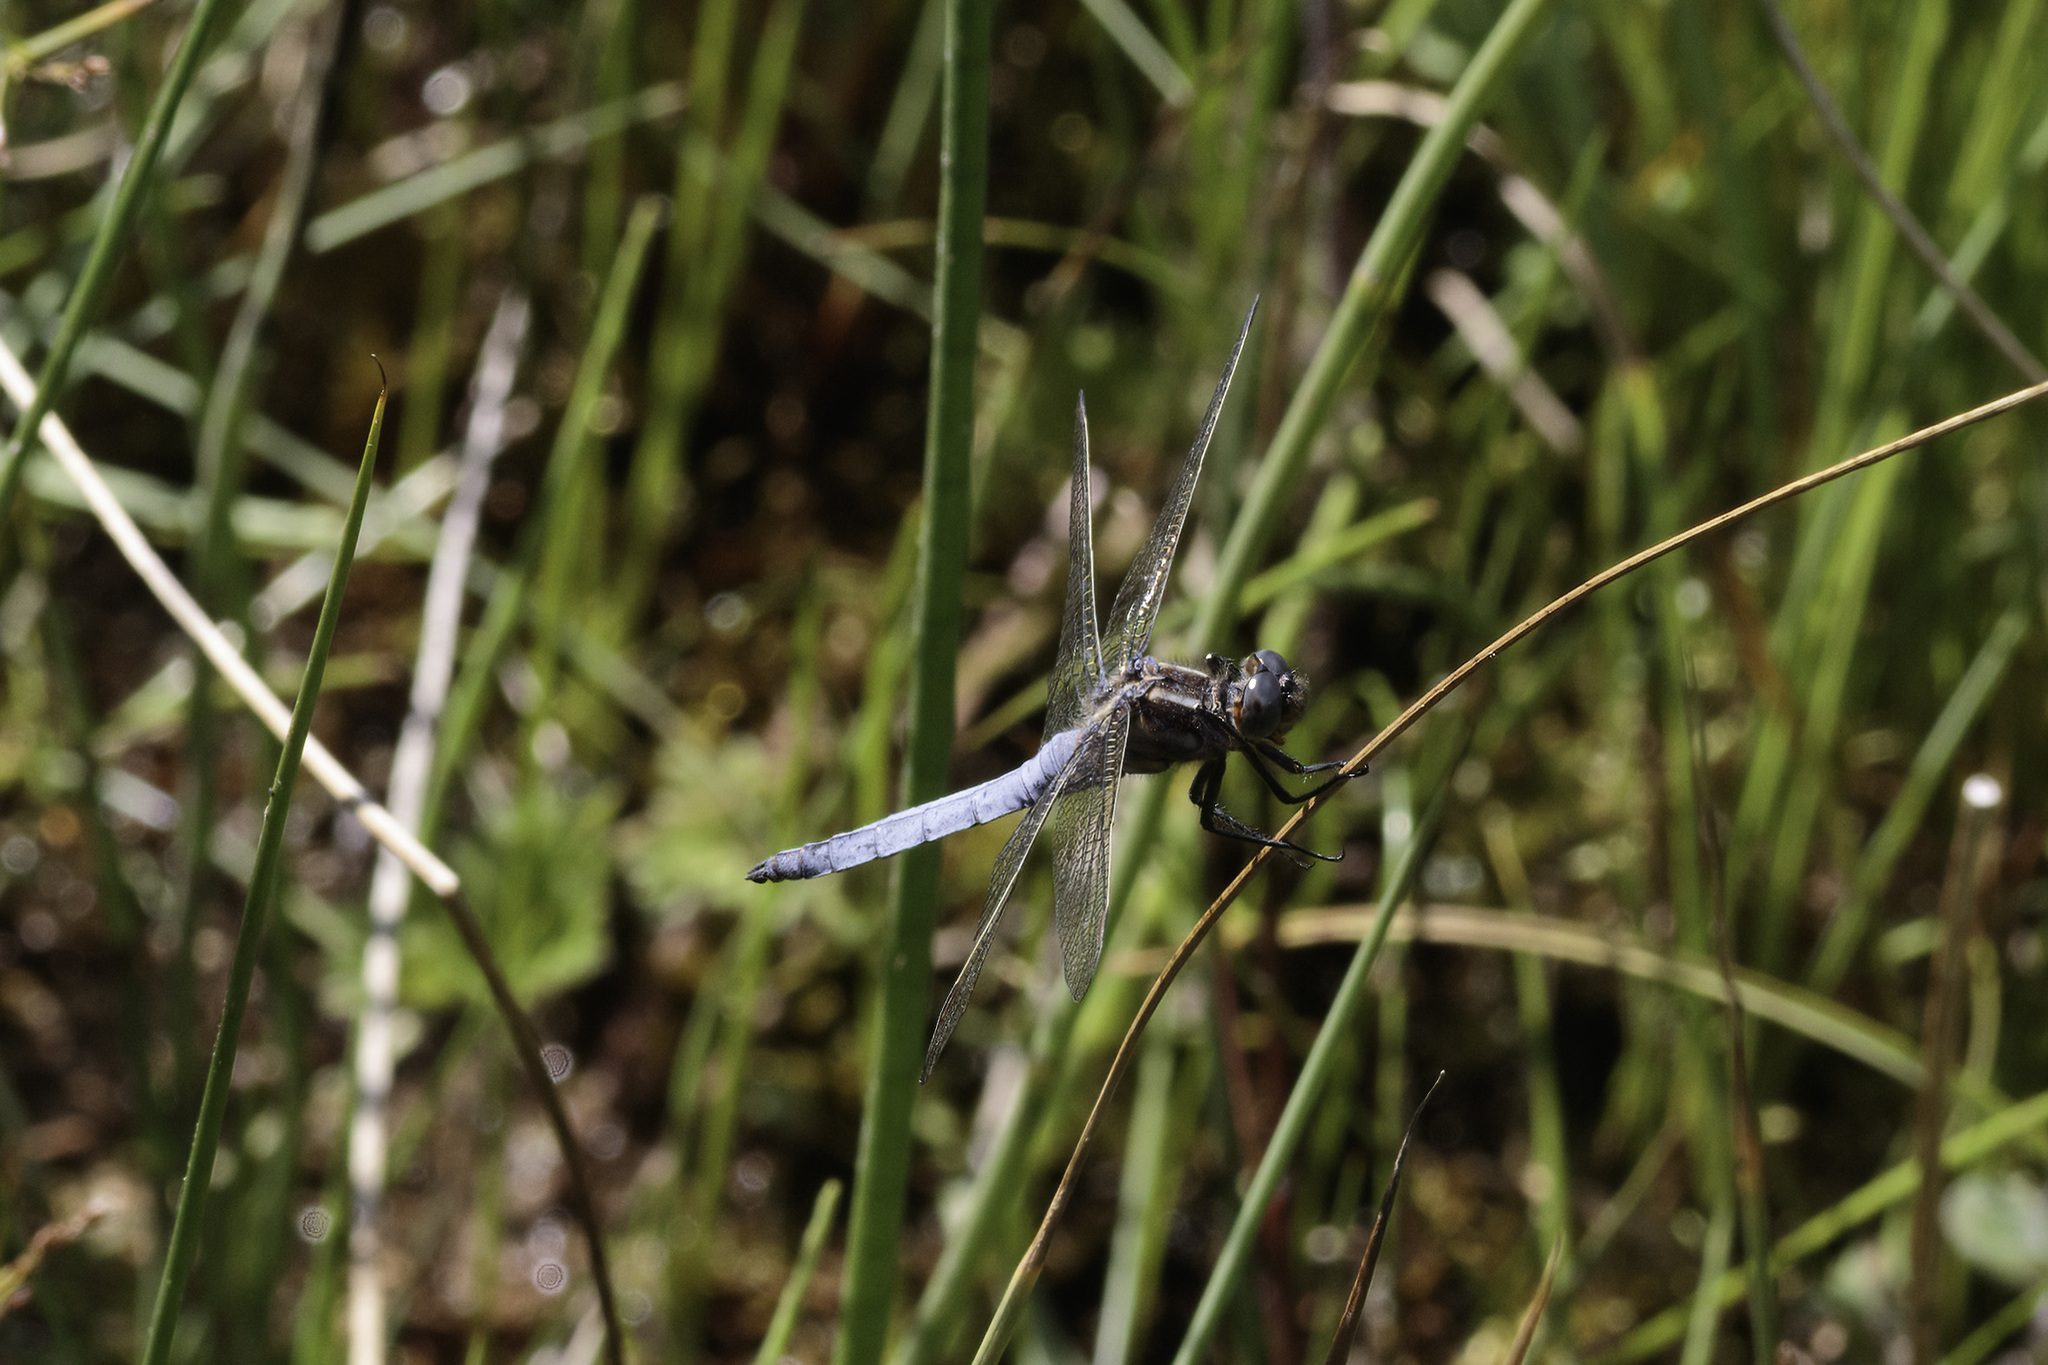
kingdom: Animalia
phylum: Arthropoda
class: Insecta
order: Odonata
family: Libellulidae
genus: Orthetrum
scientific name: Orthetrum coerulescens
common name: Keeled skimmer
